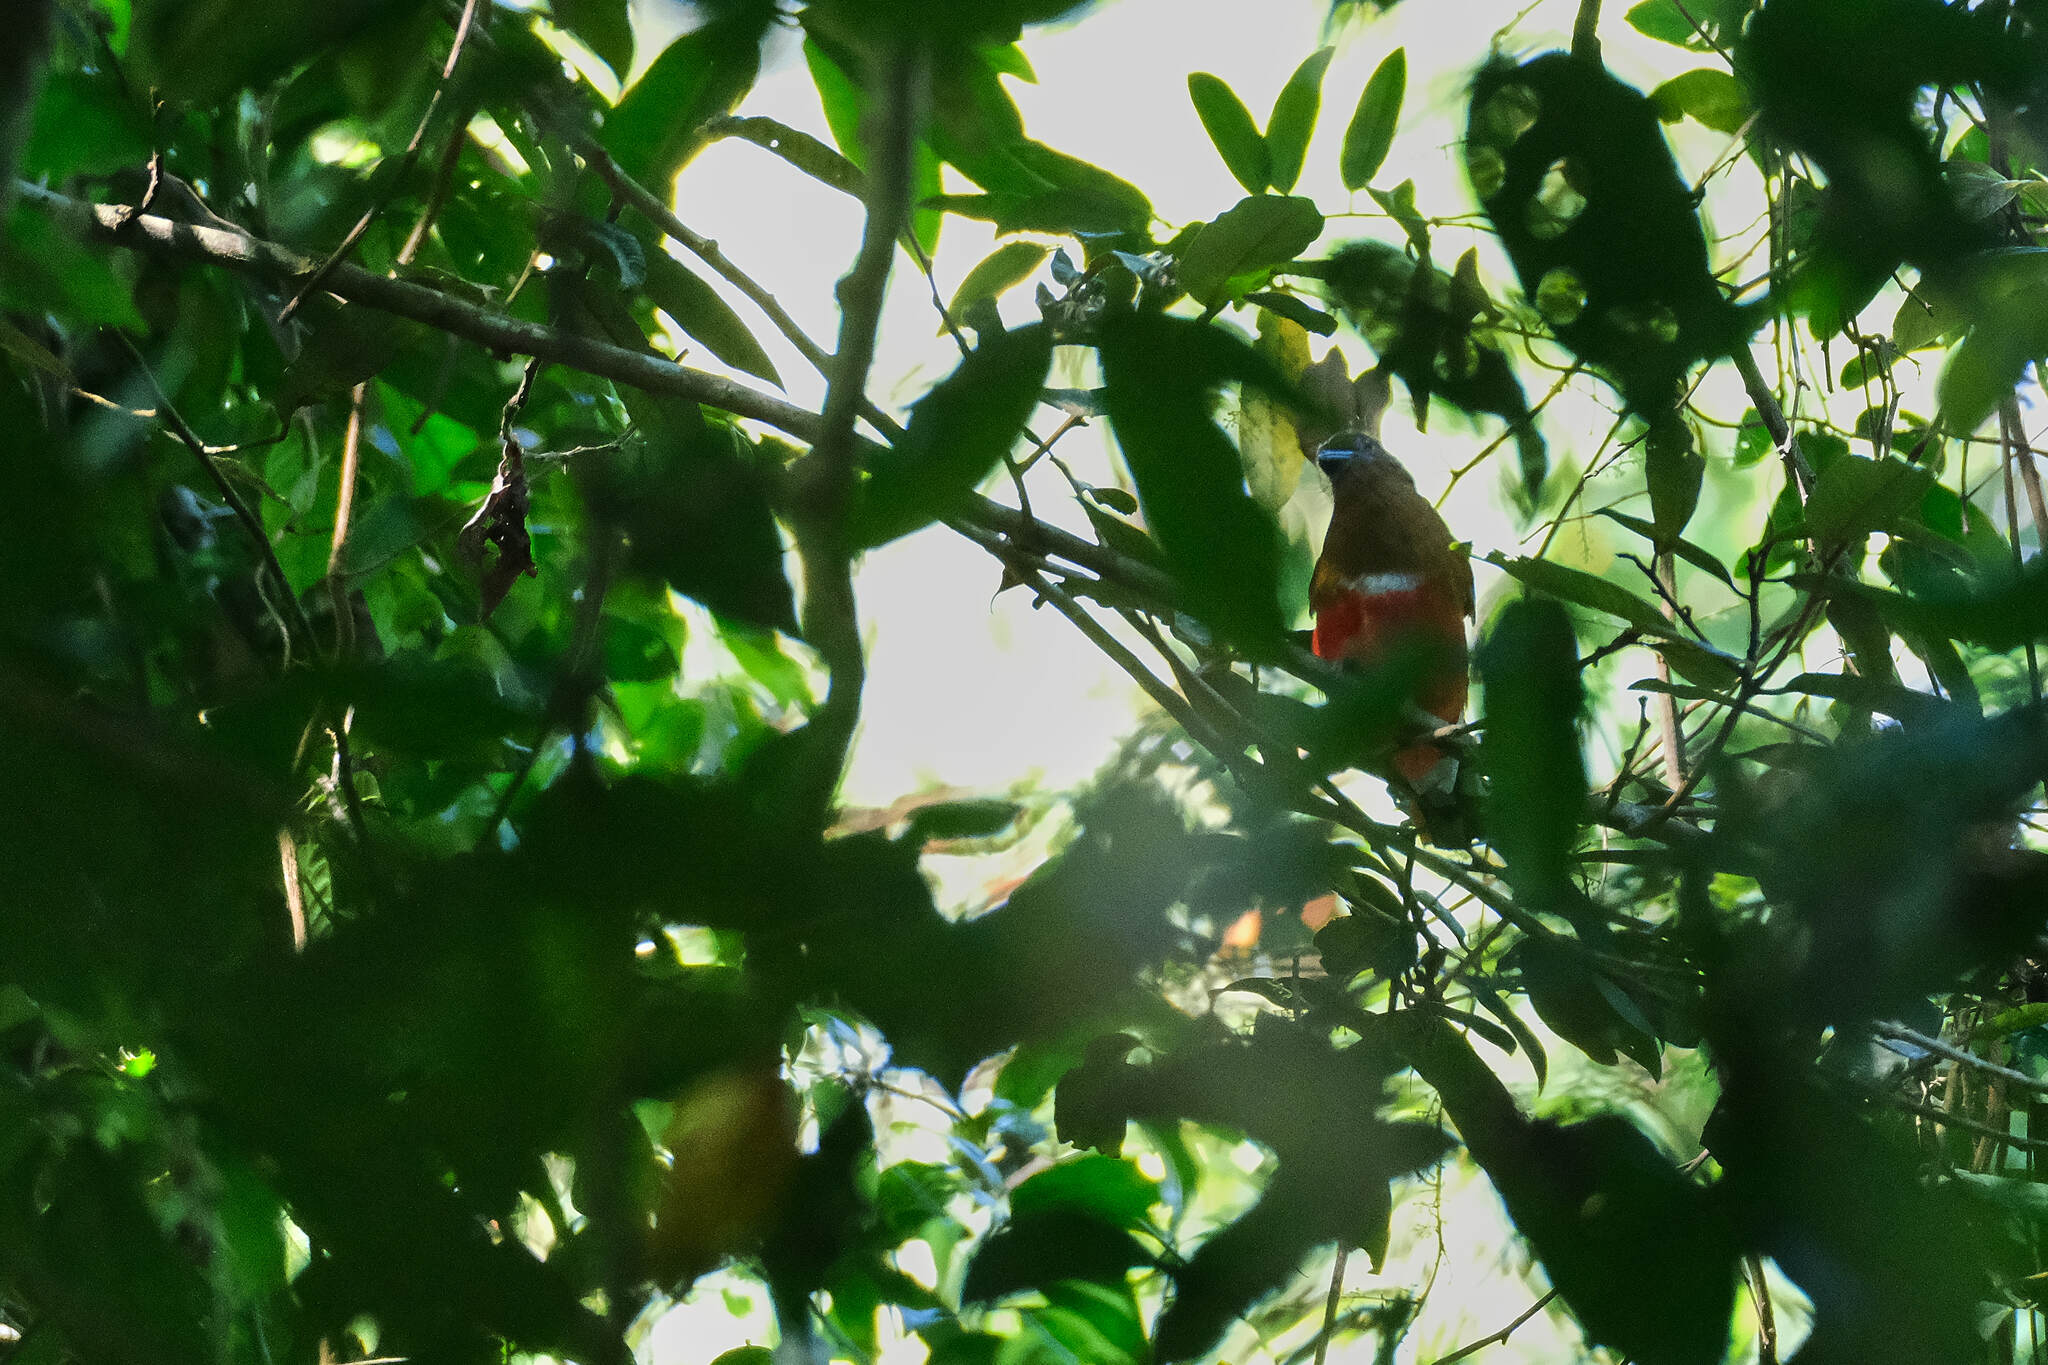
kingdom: Animalia
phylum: Chordata
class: Aves
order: Trogoniformes
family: Trogonidae
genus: Harpactes
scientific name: Harpactes erythrocephalus
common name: Red-headed trogon
